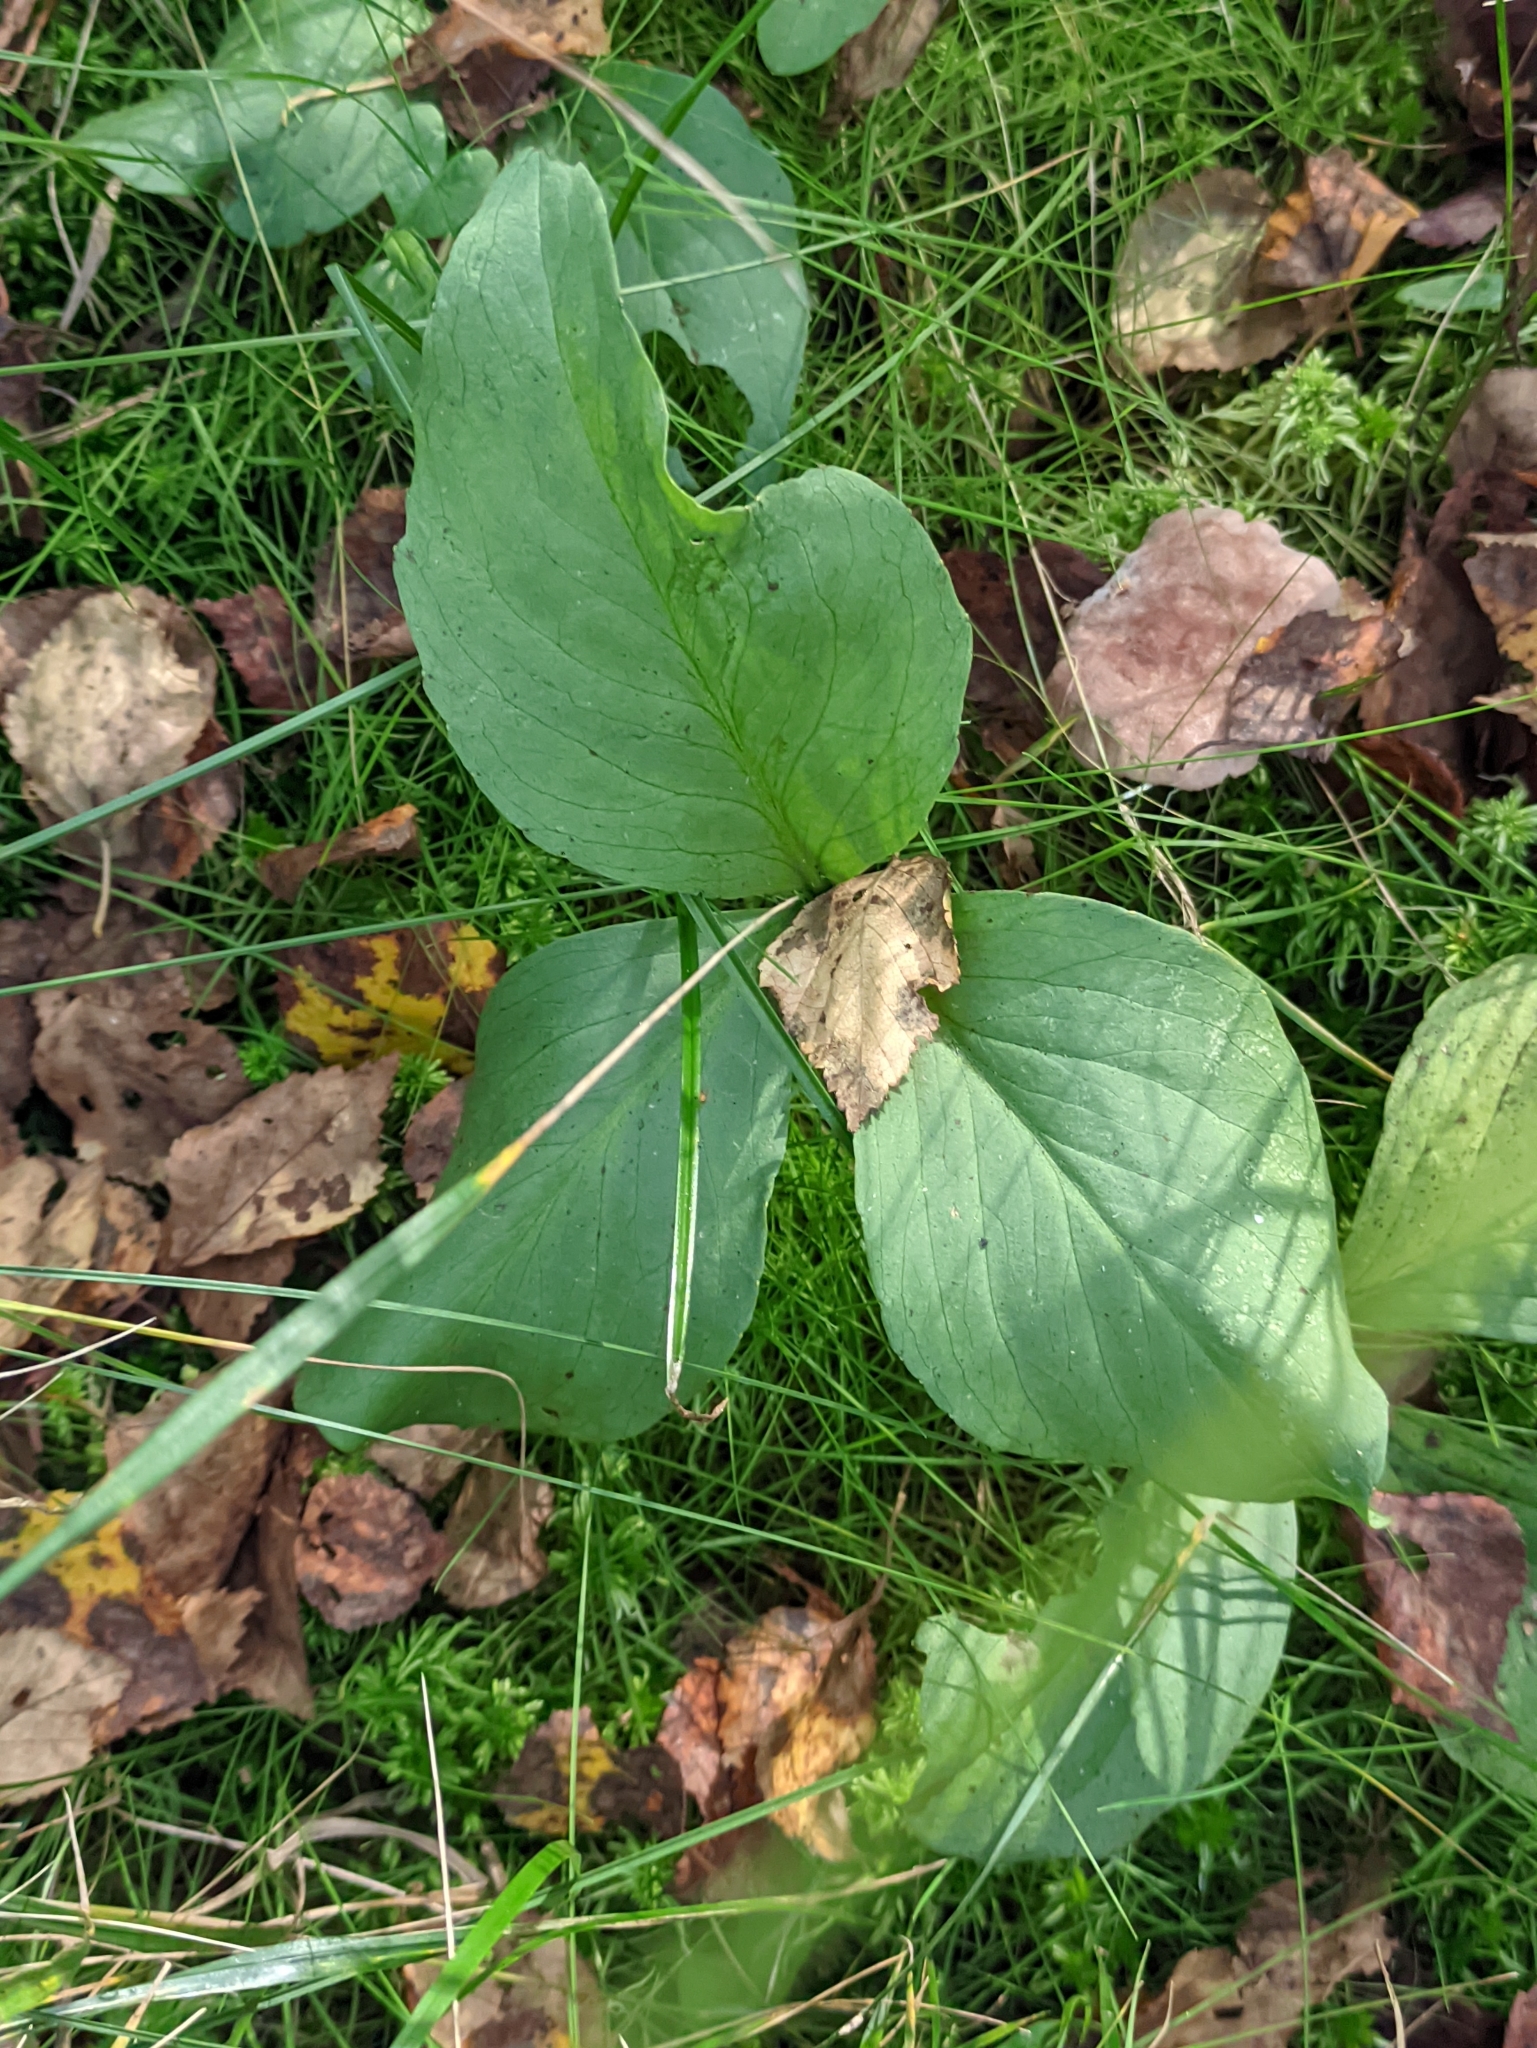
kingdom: Plantae
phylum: Tracheophyta
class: Magnoliopsida
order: Asterales
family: Menyanthaceae
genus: Menyanthes
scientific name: Menyanthes trifoliata
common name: Bogbean
